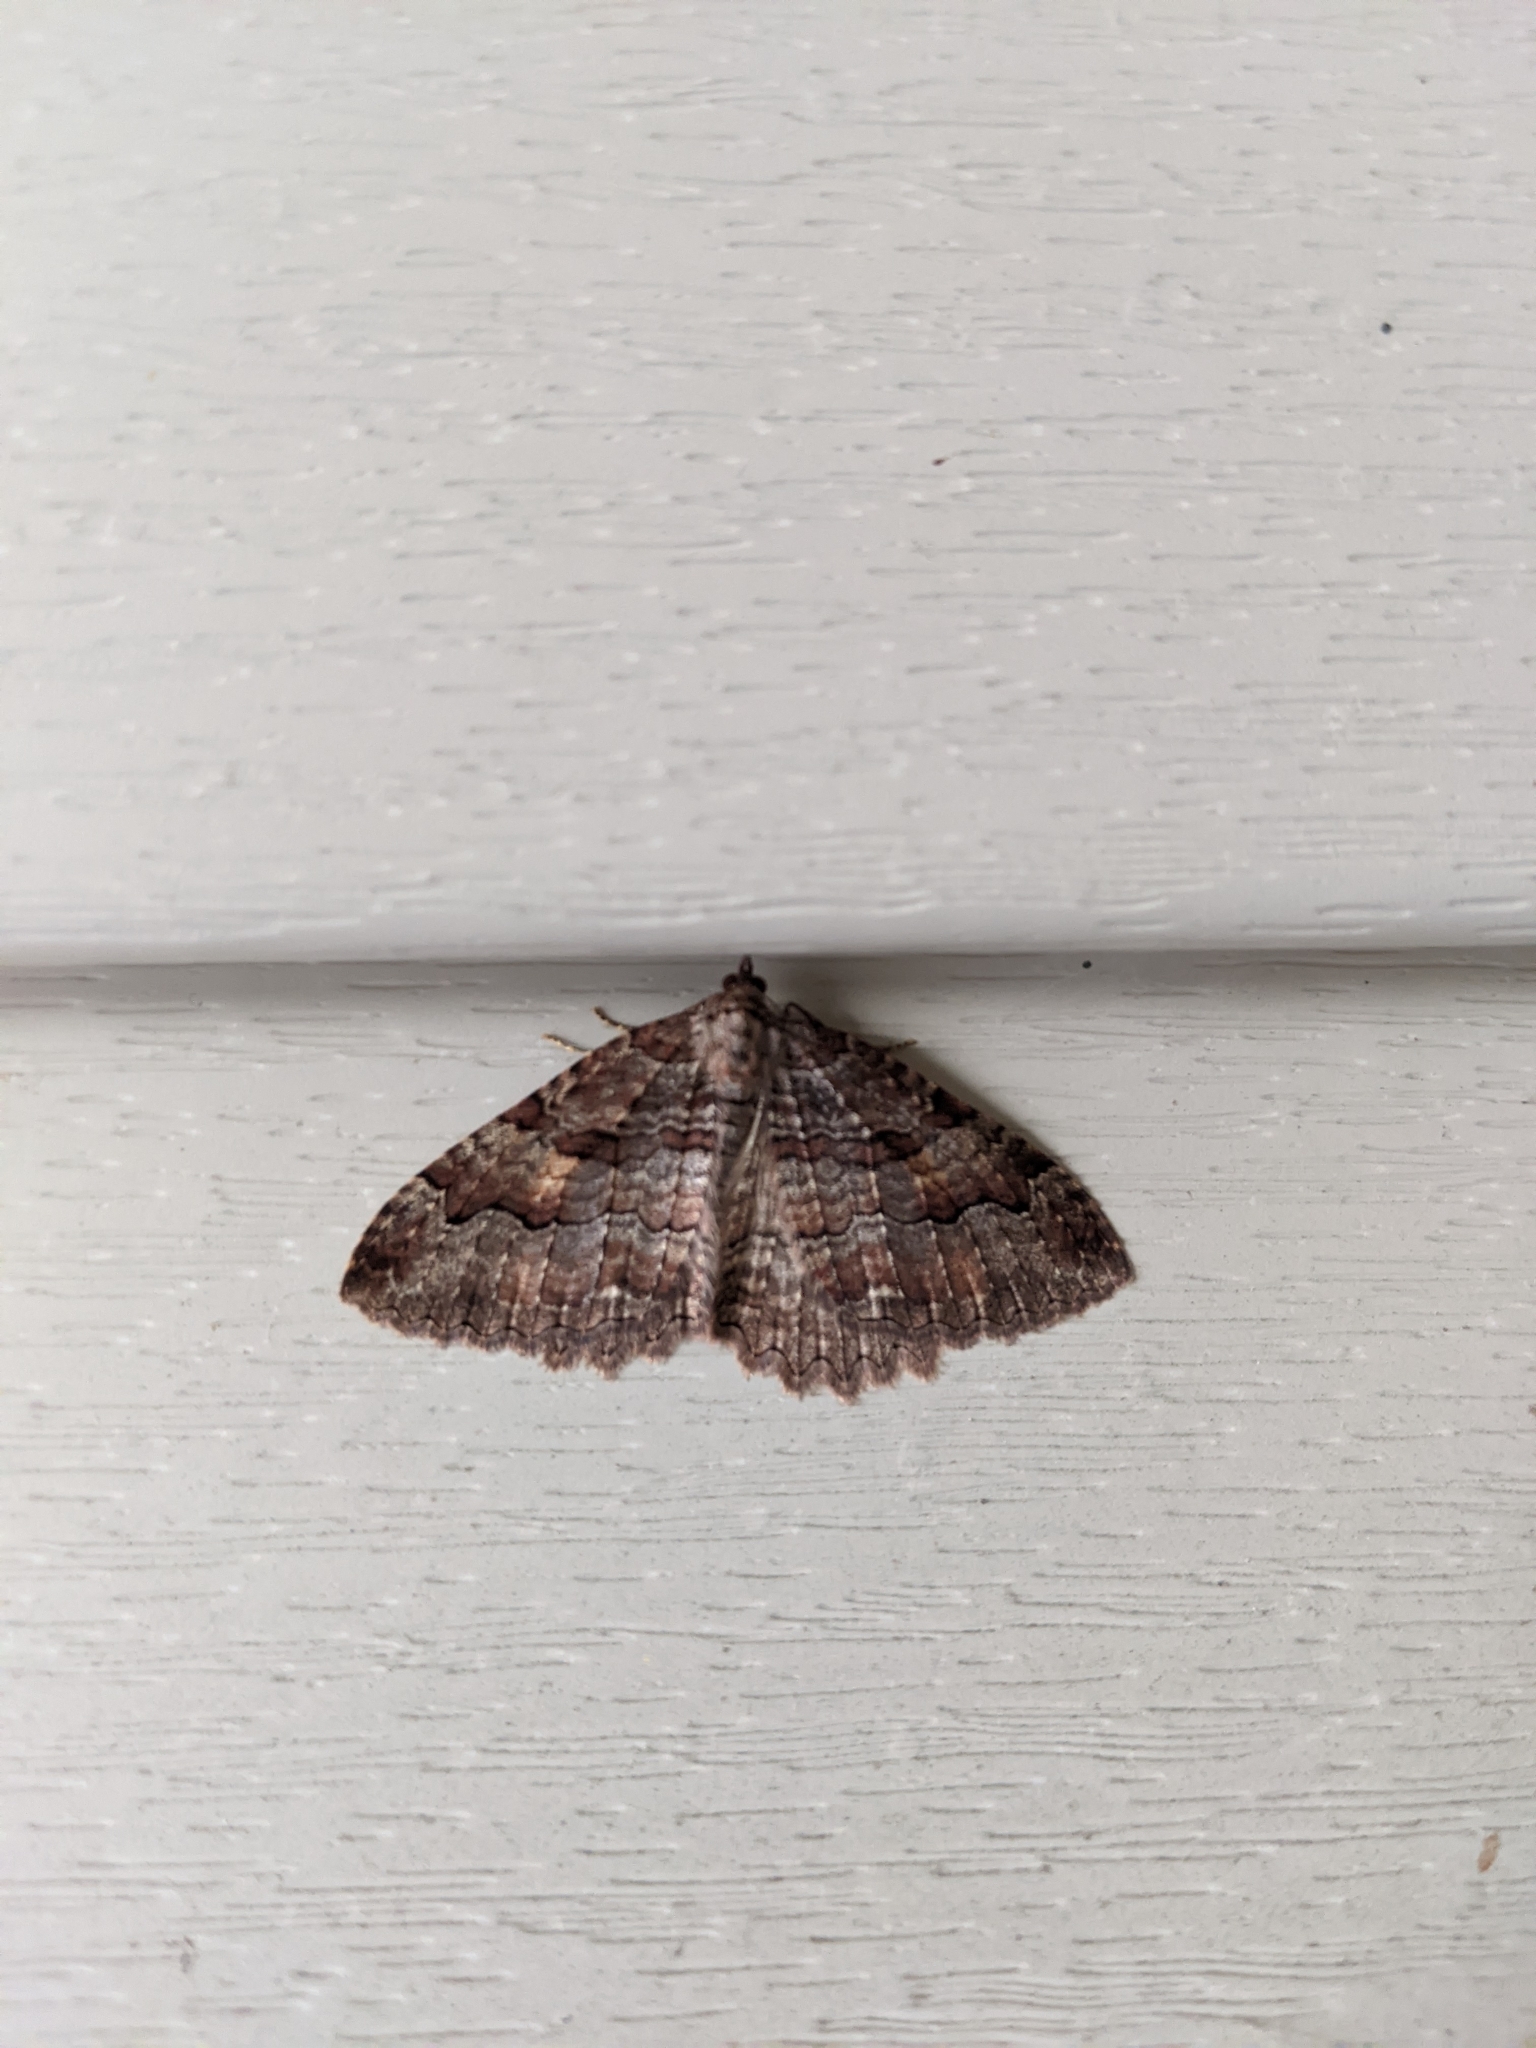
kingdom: Animalia
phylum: Arthropoda
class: Insecta
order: Lepidoptera
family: Geometridae
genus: Triphosa
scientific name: Triphosa haesitata
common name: Tissue moth
